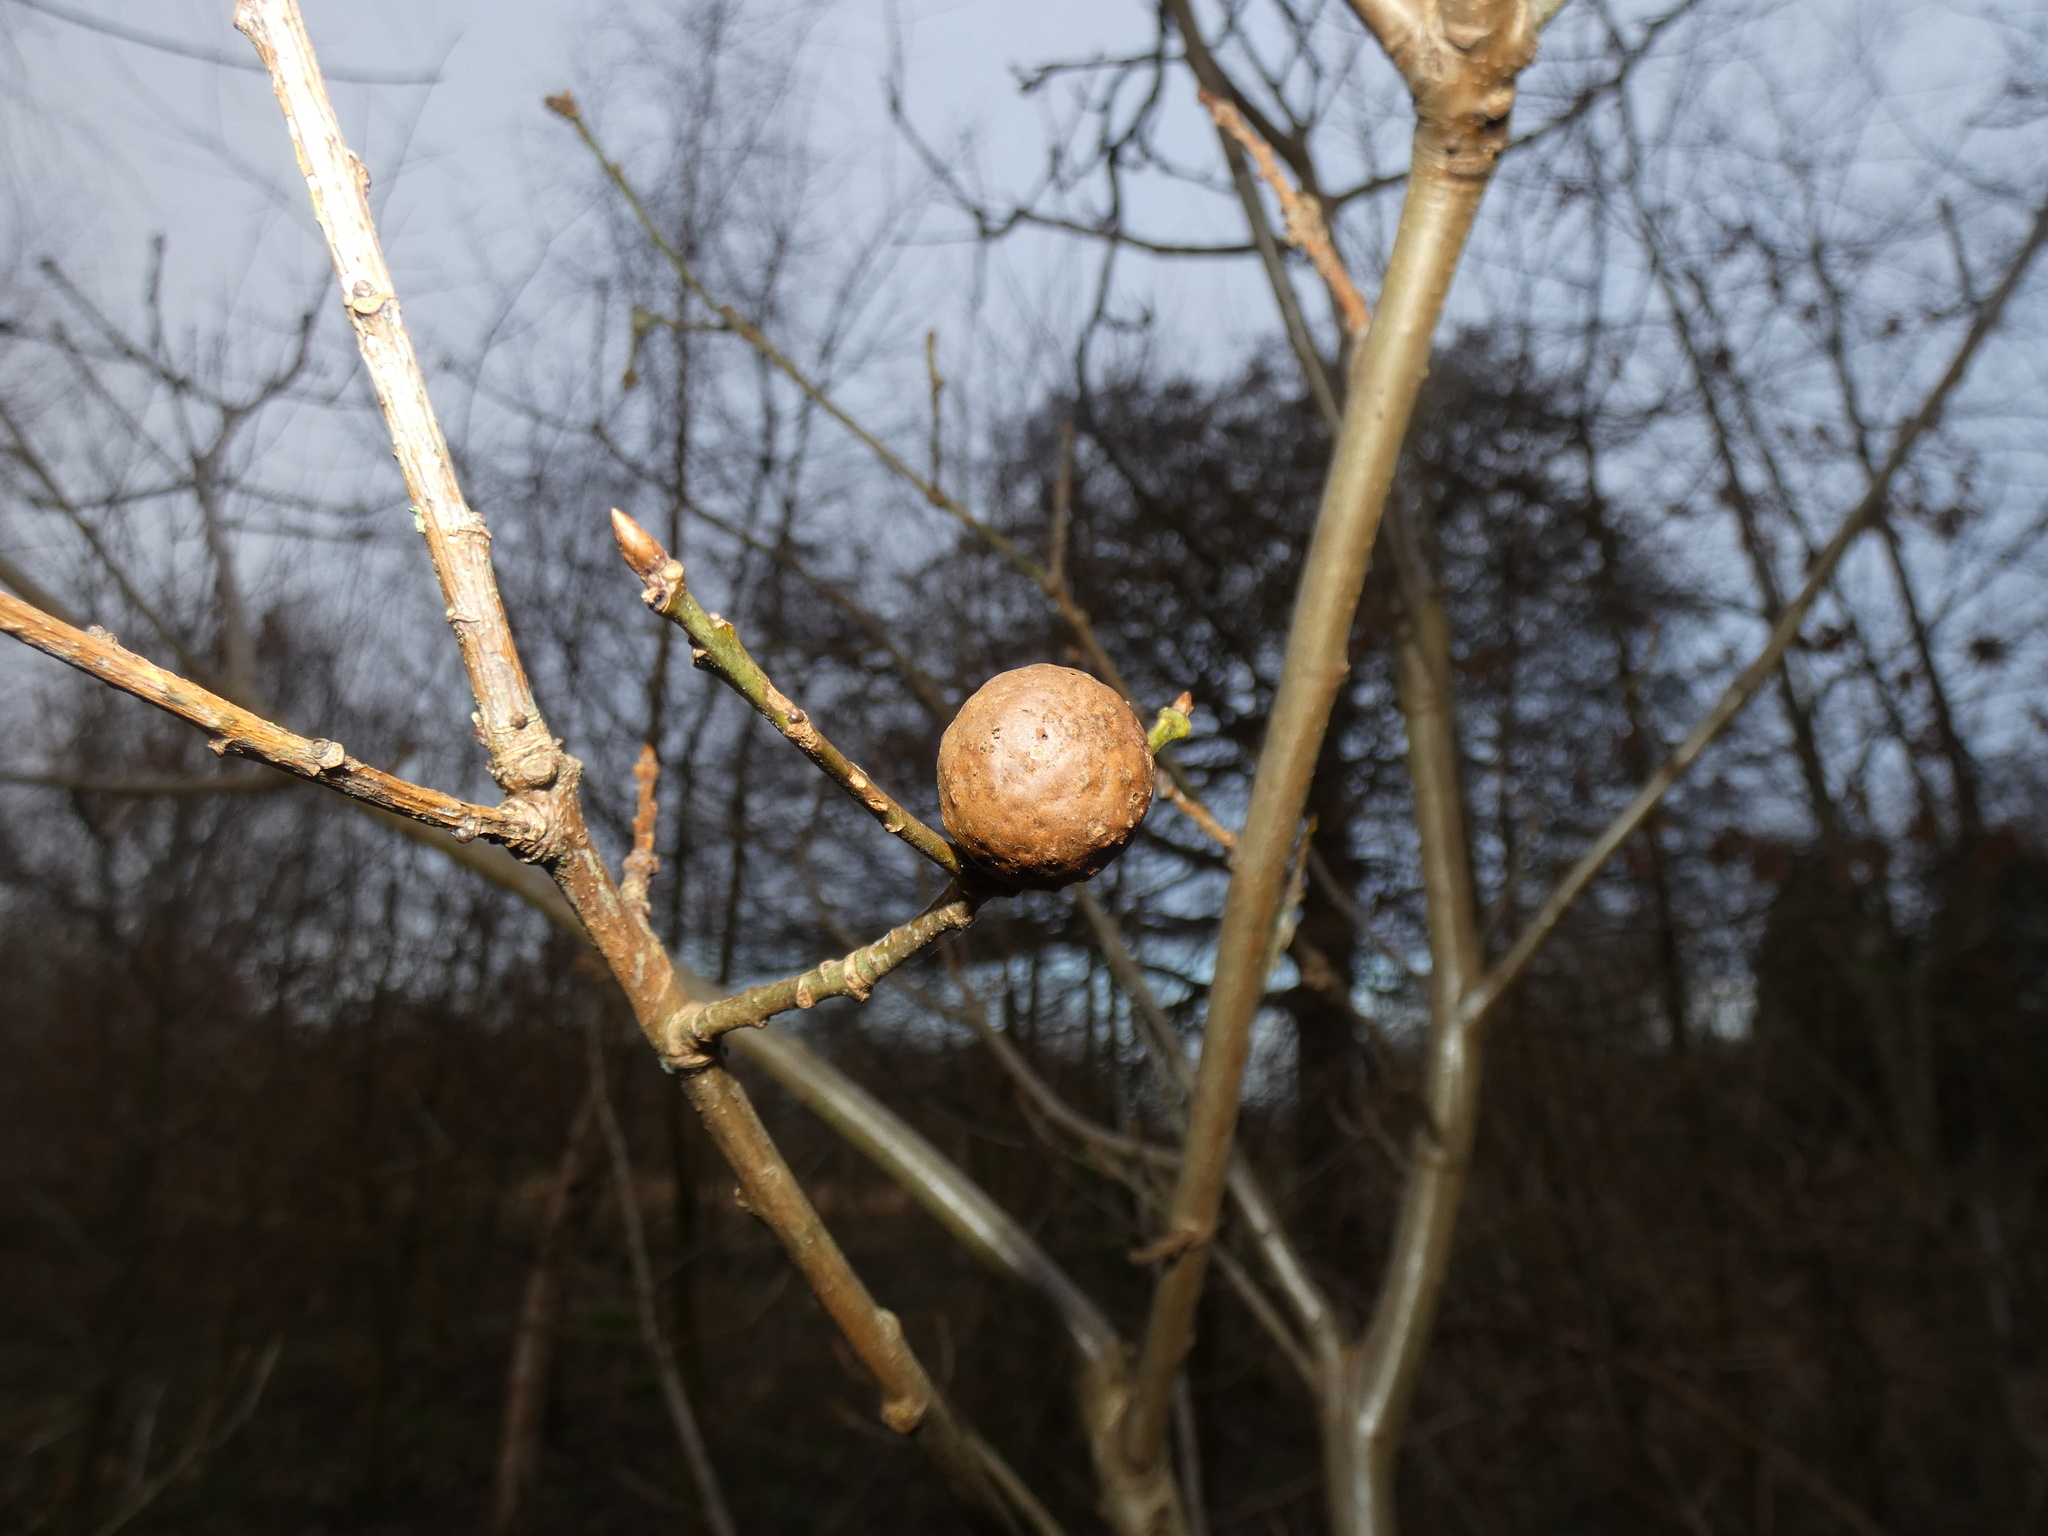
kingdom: Animalia
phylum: Arthropoda
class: Insecta
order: Hymenoptera
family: Cynipidae
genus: Andricus
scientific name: Andricus kollari
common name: Marble gall
